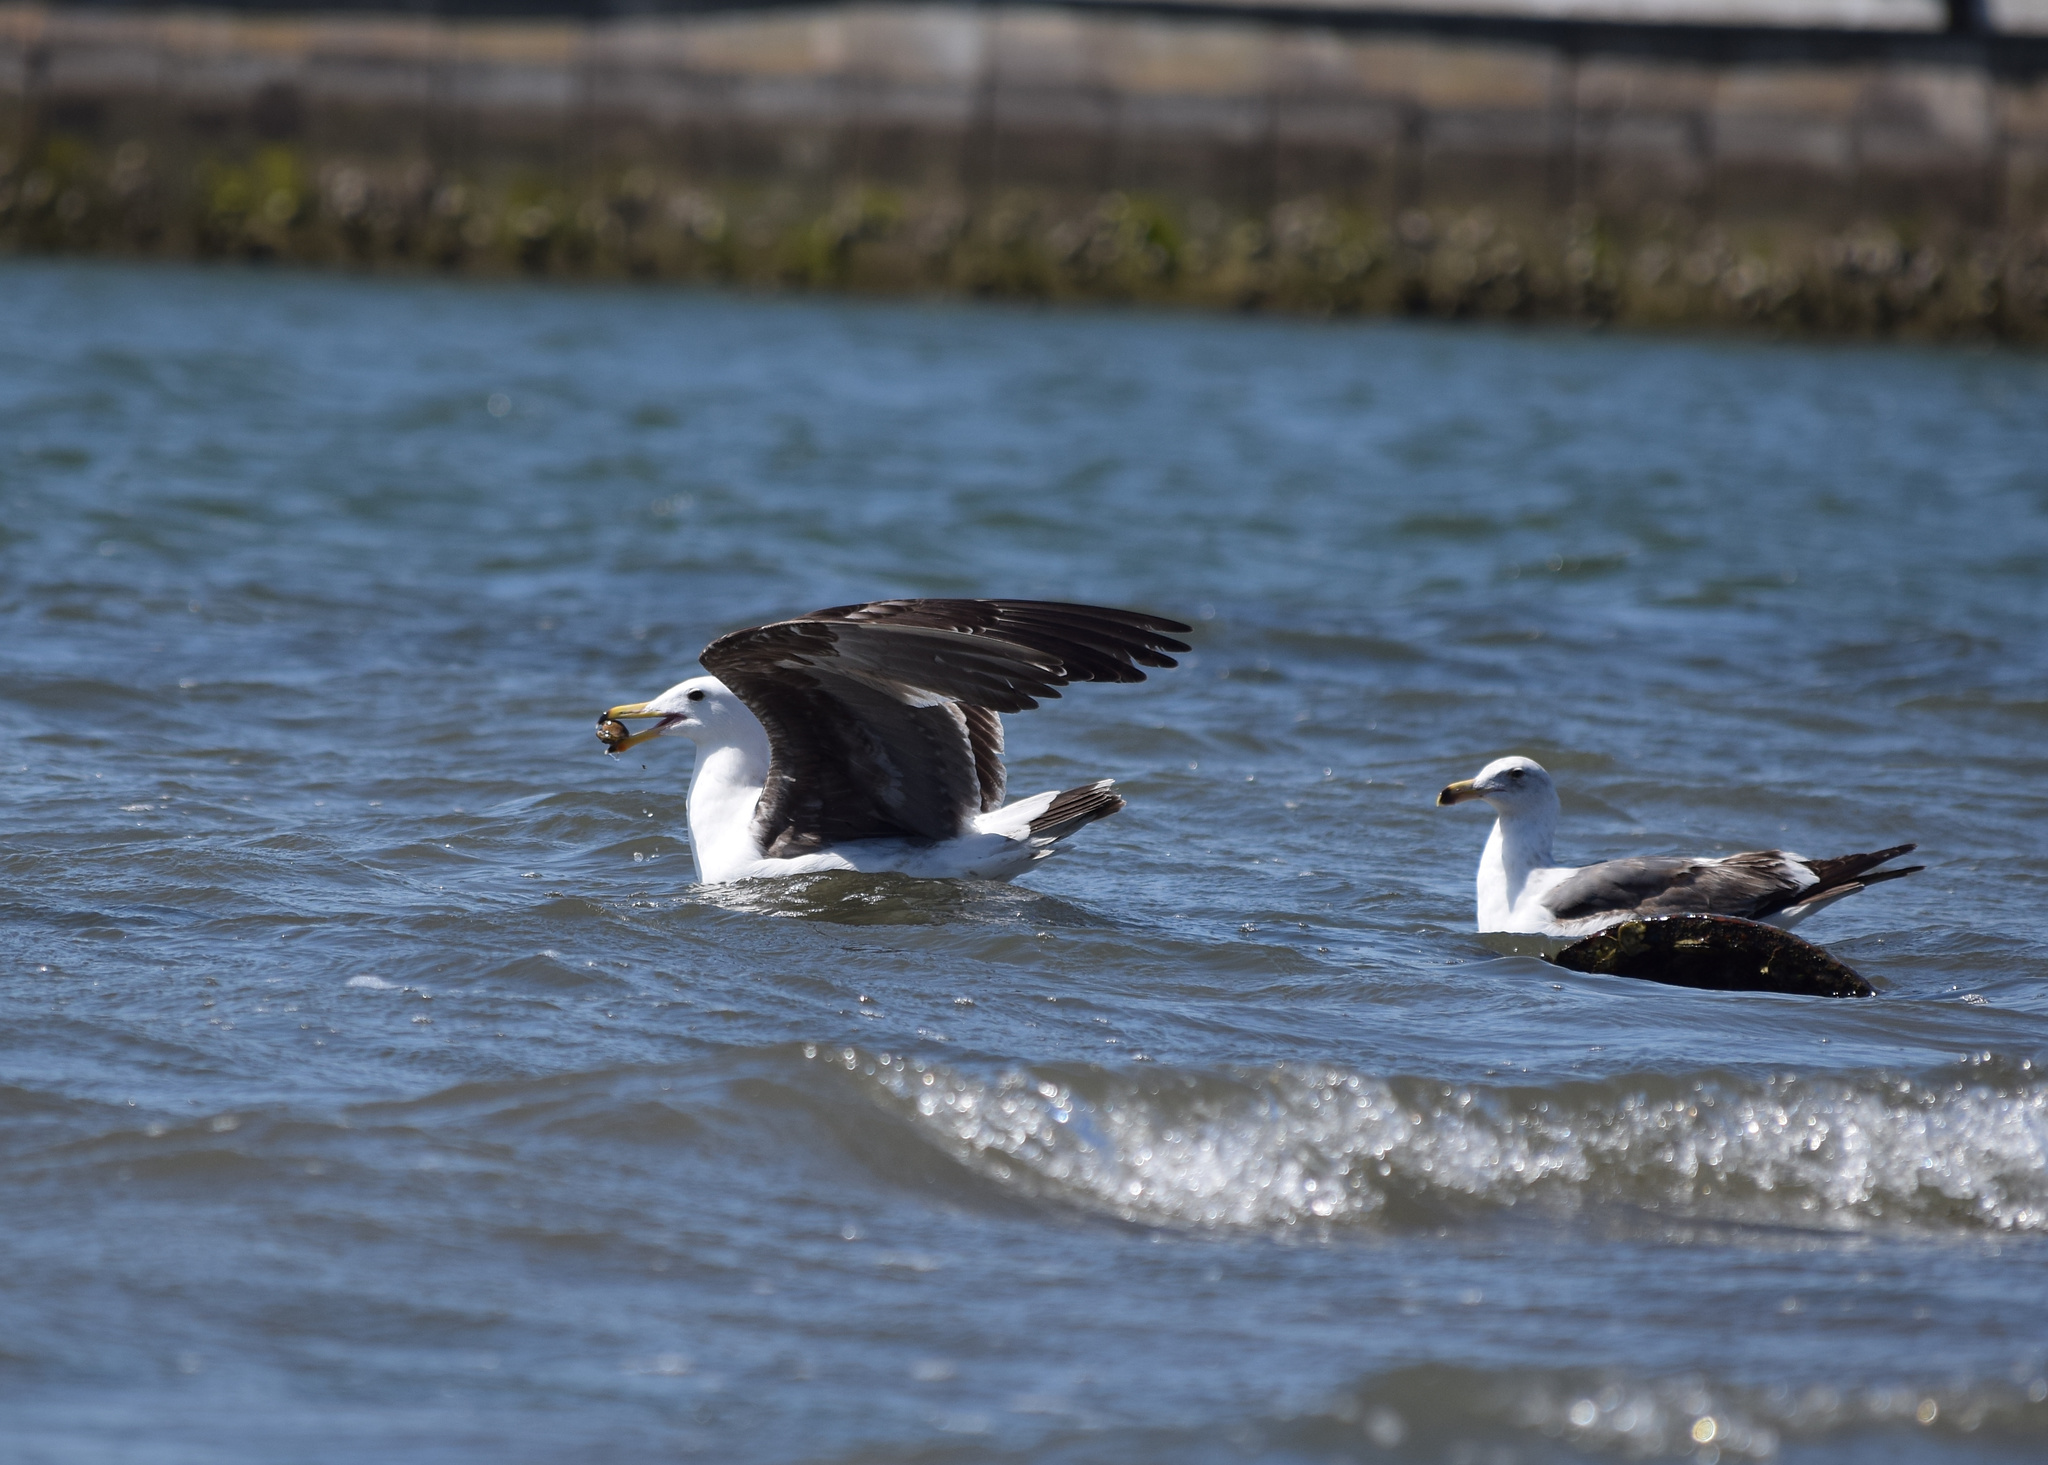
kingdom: Animalia
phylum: Chordata
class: Aves
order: Charadriiformes
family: Laridae
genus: Larus
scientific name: Larus occidentalis
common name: Western gull
